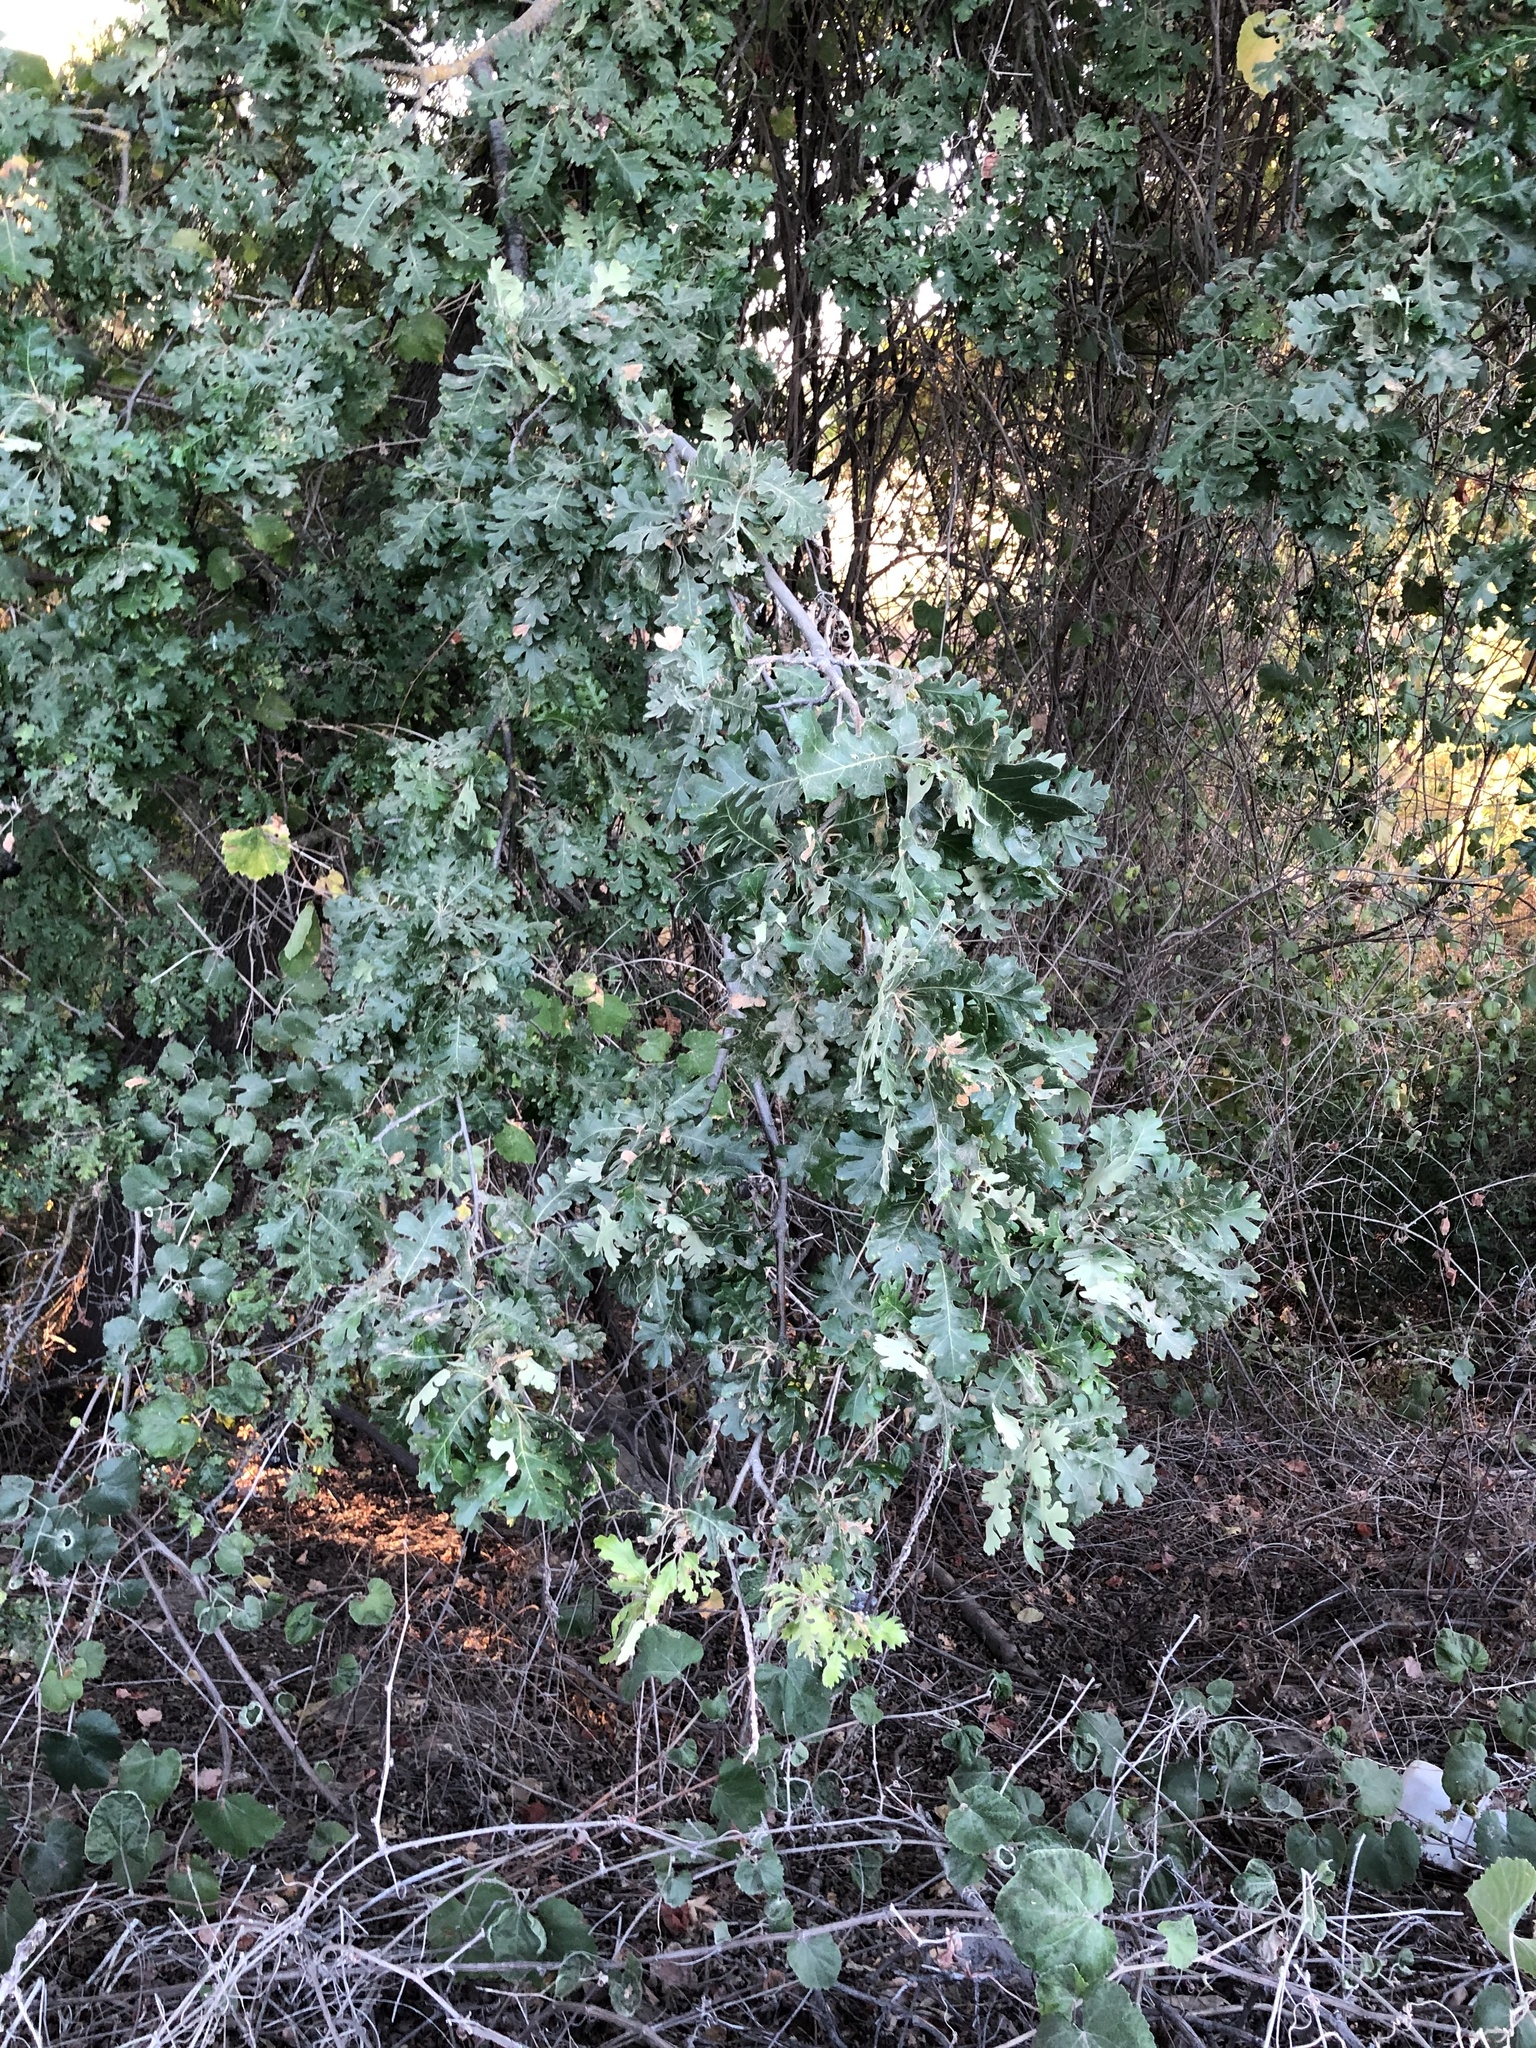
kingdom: Plantae
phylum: Tracheophyta
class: Magnoliopsida
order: Fagales
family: Fagaceae
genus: Quercus
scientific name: Quercus lobata
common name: Valley oak
